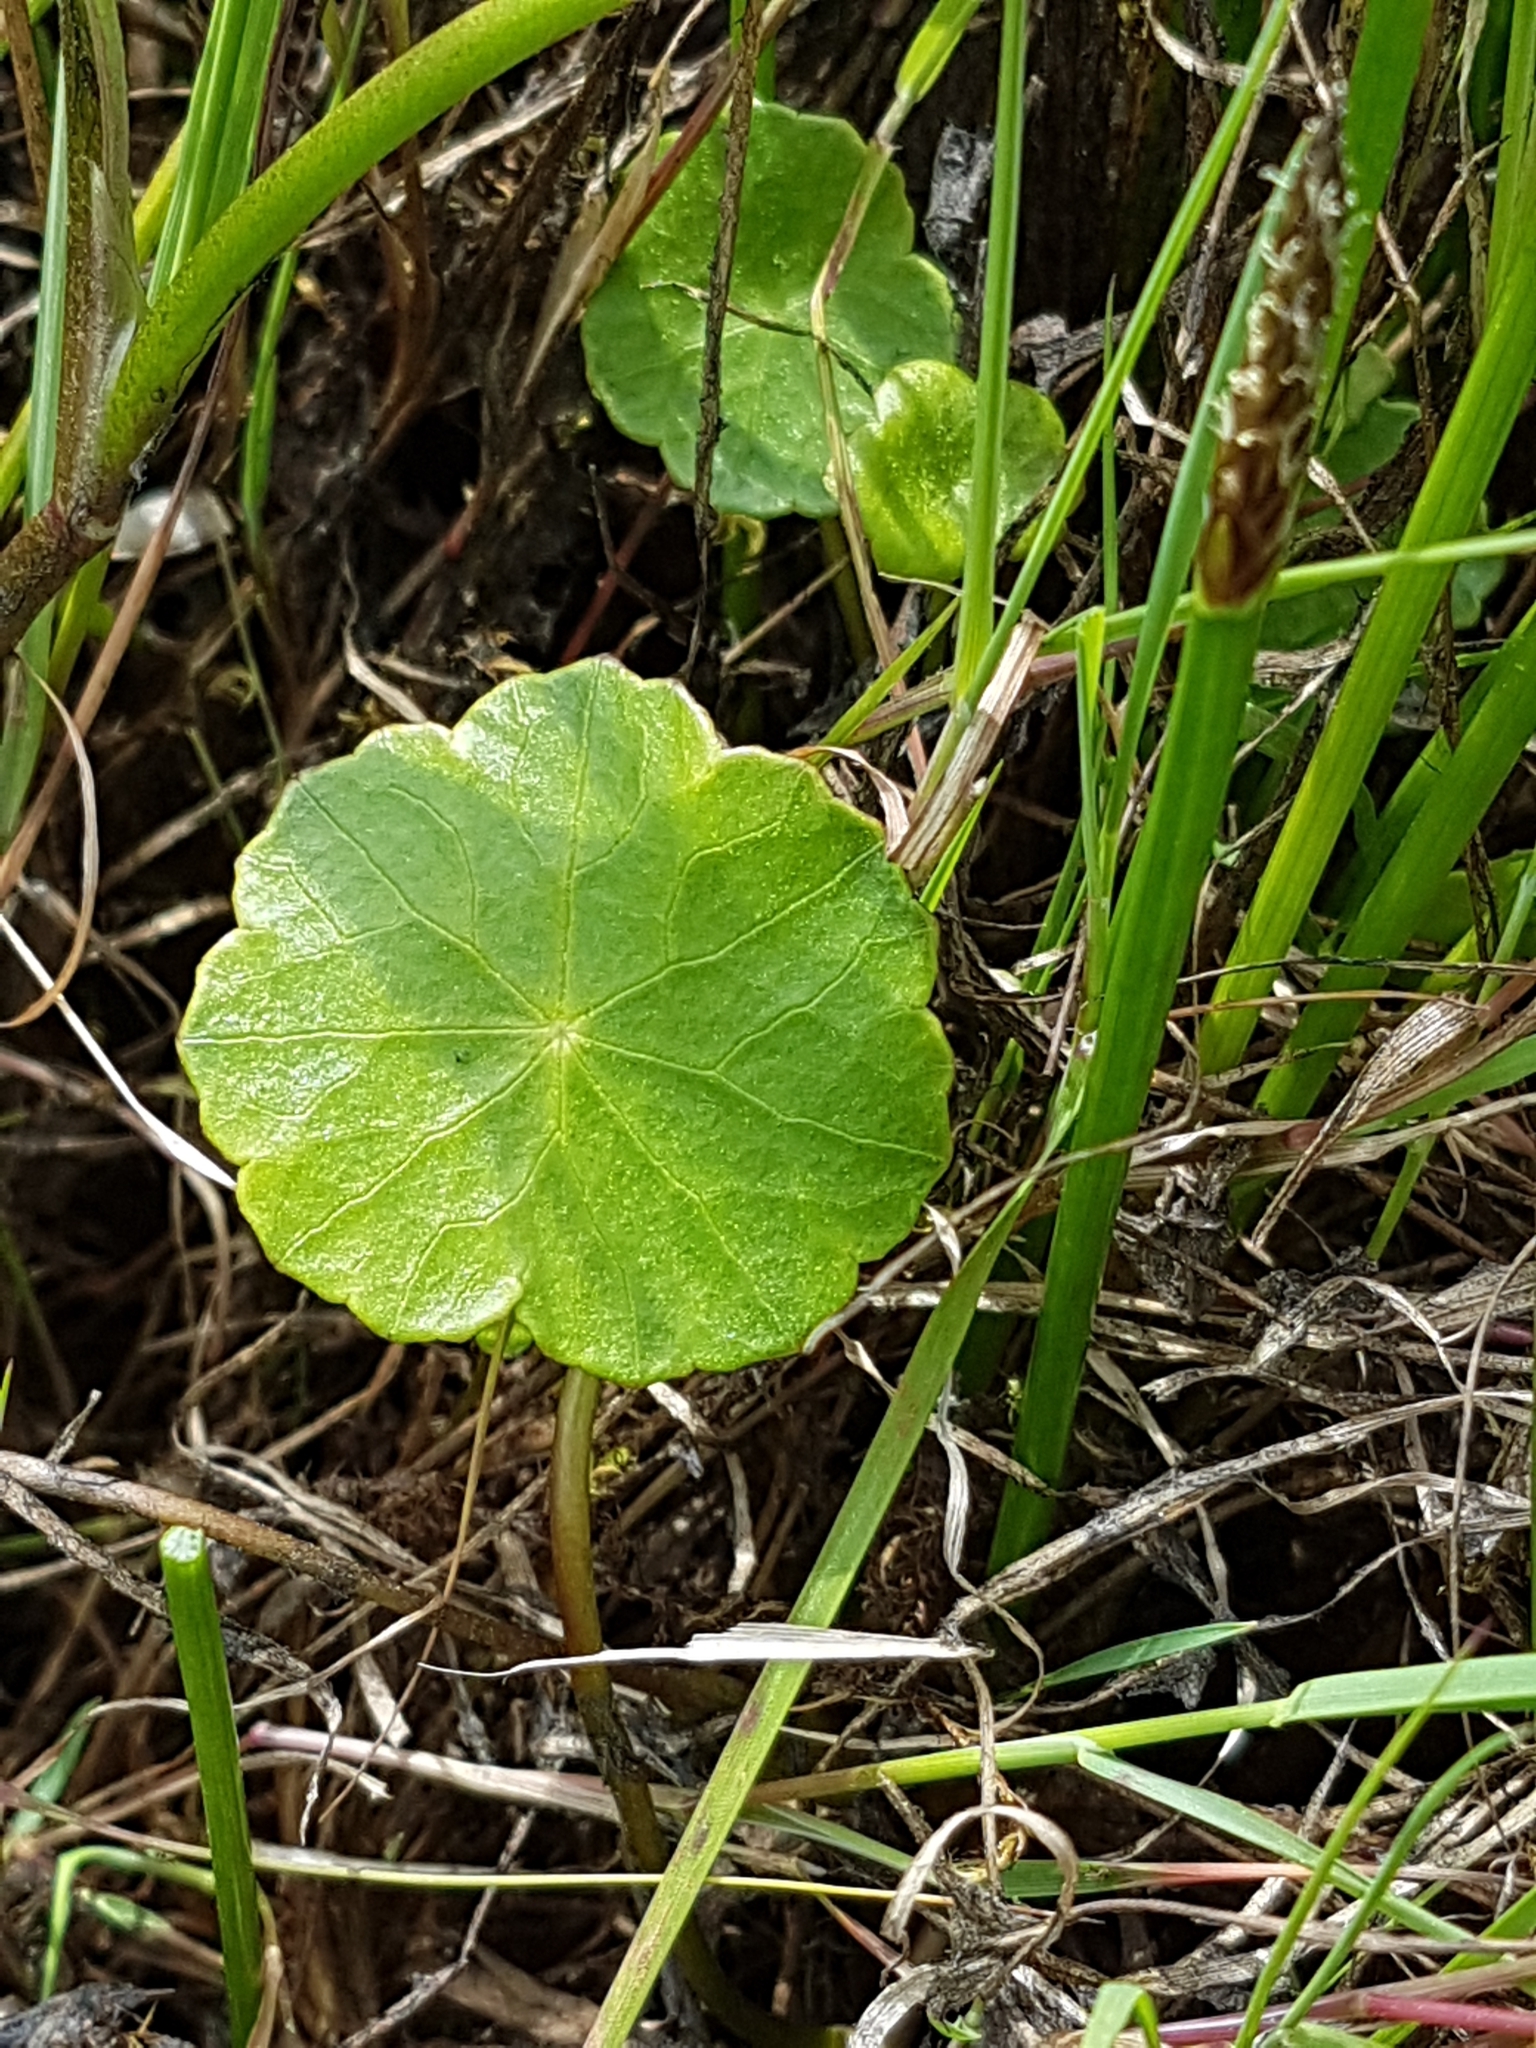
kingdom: Plantae
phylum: Tracheophyta
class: Magnoliopsida
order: Apiales
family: Araliaceae
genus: Hydrocotyle
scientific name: Hydrocotyle vulgaris
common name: Marsh pennywort
